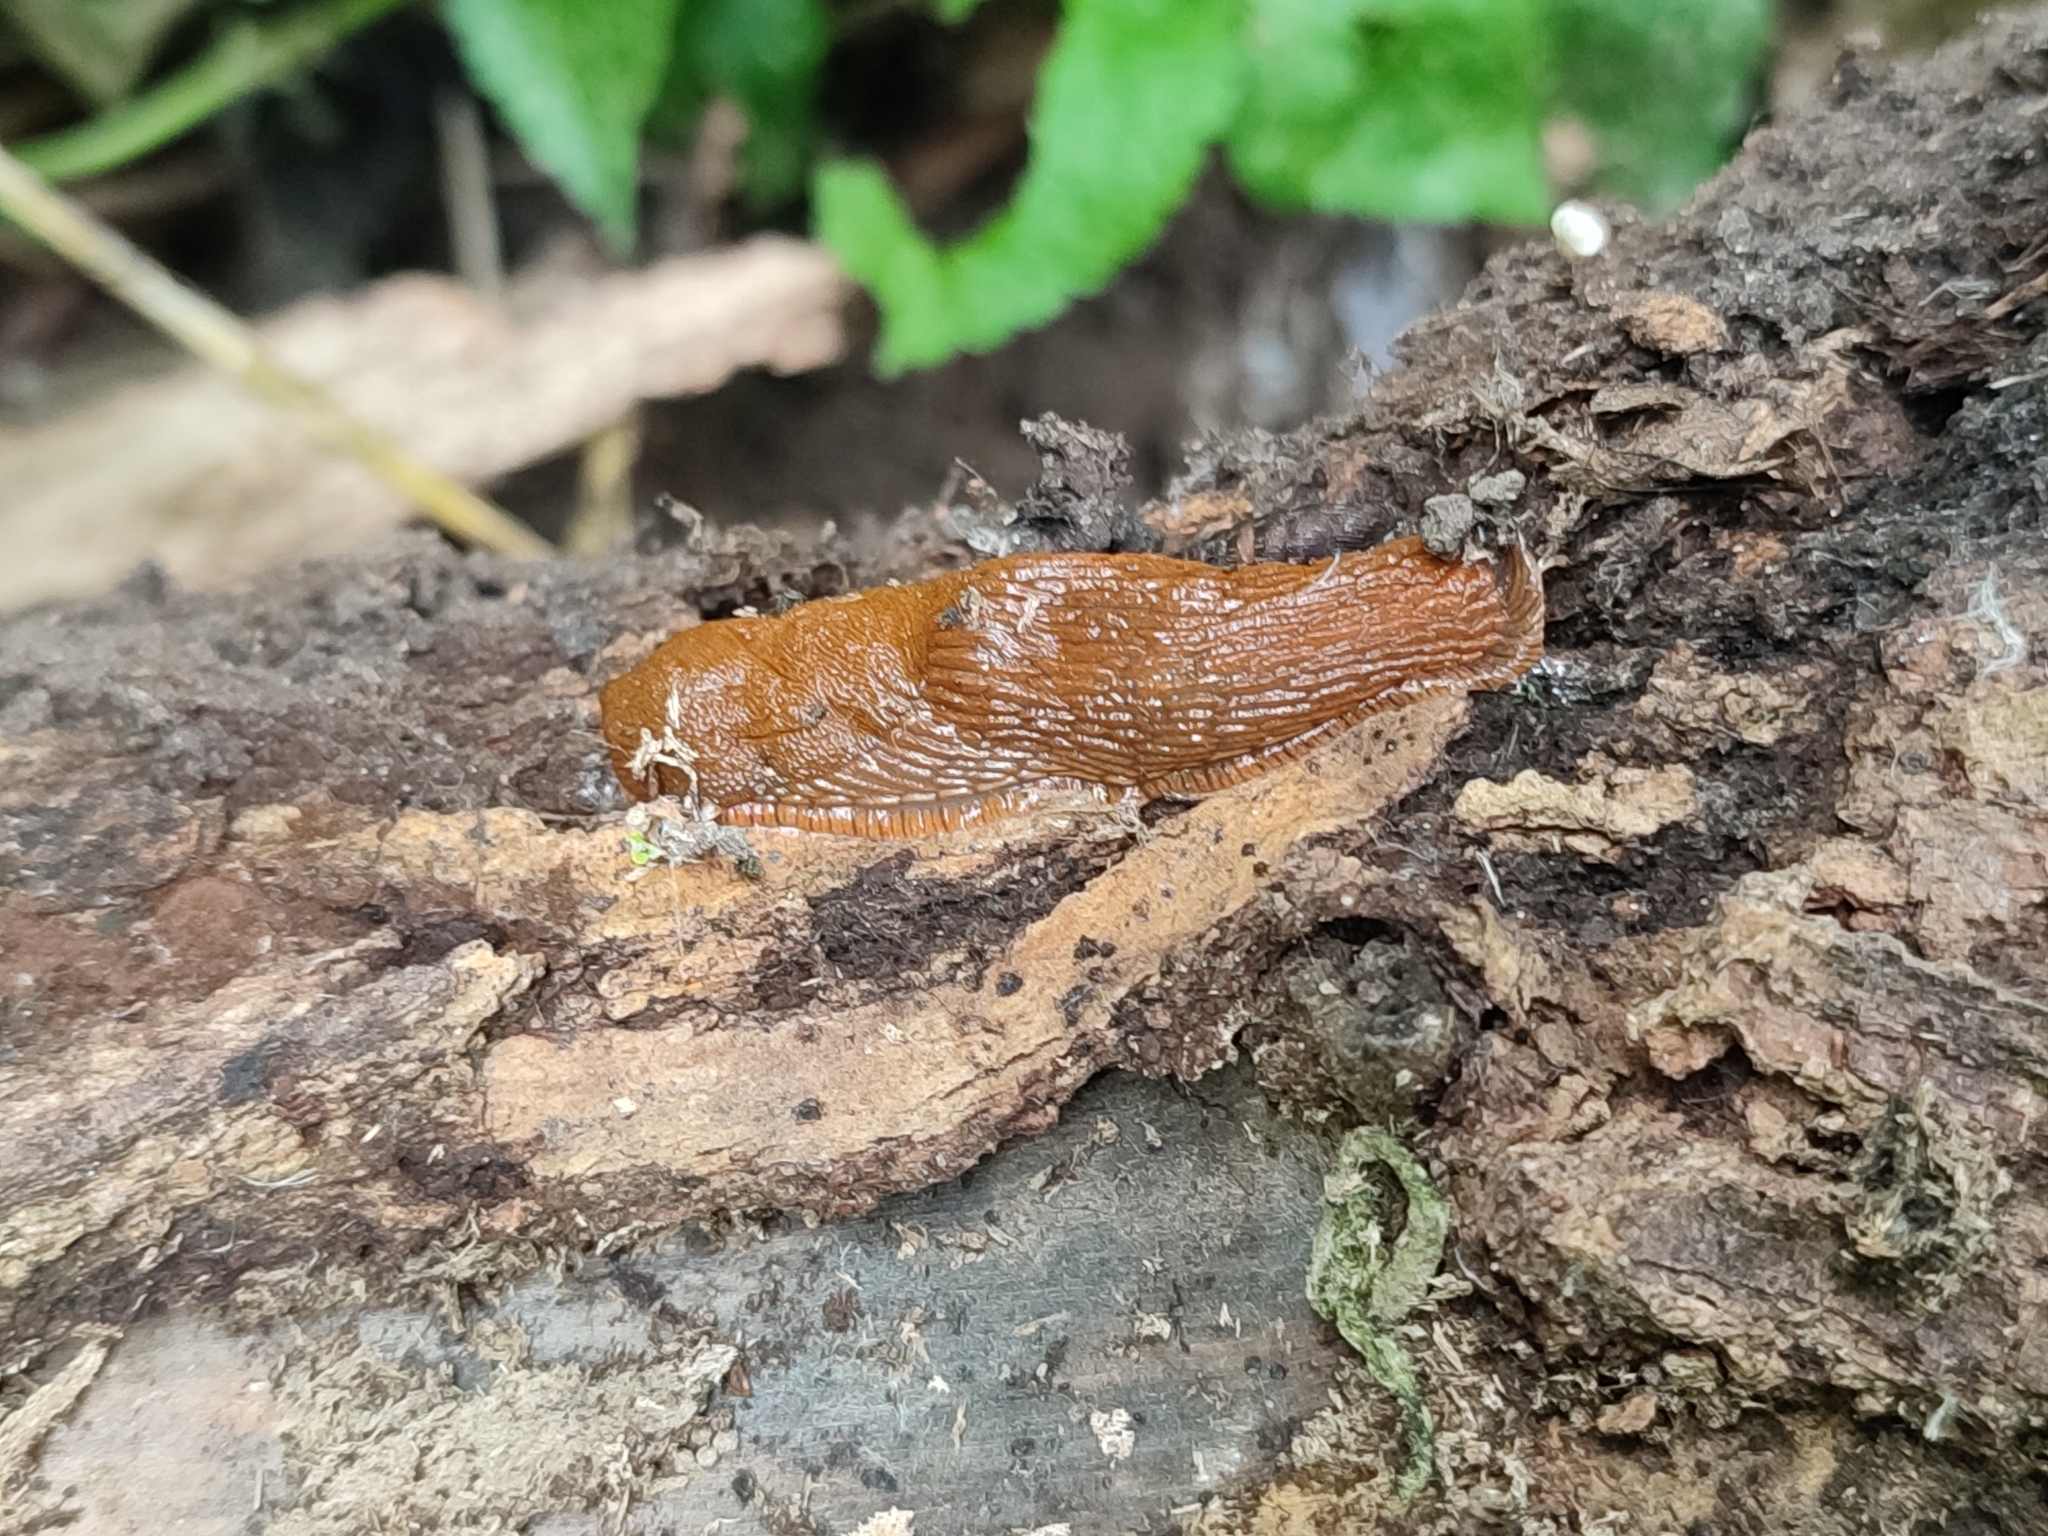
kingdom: Animalia
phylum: Mollusca
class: Gastropoda
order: Stylommatophora
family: Arionidae
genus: Arion
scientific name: Arion vulgaris
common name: Lusitanian slug
